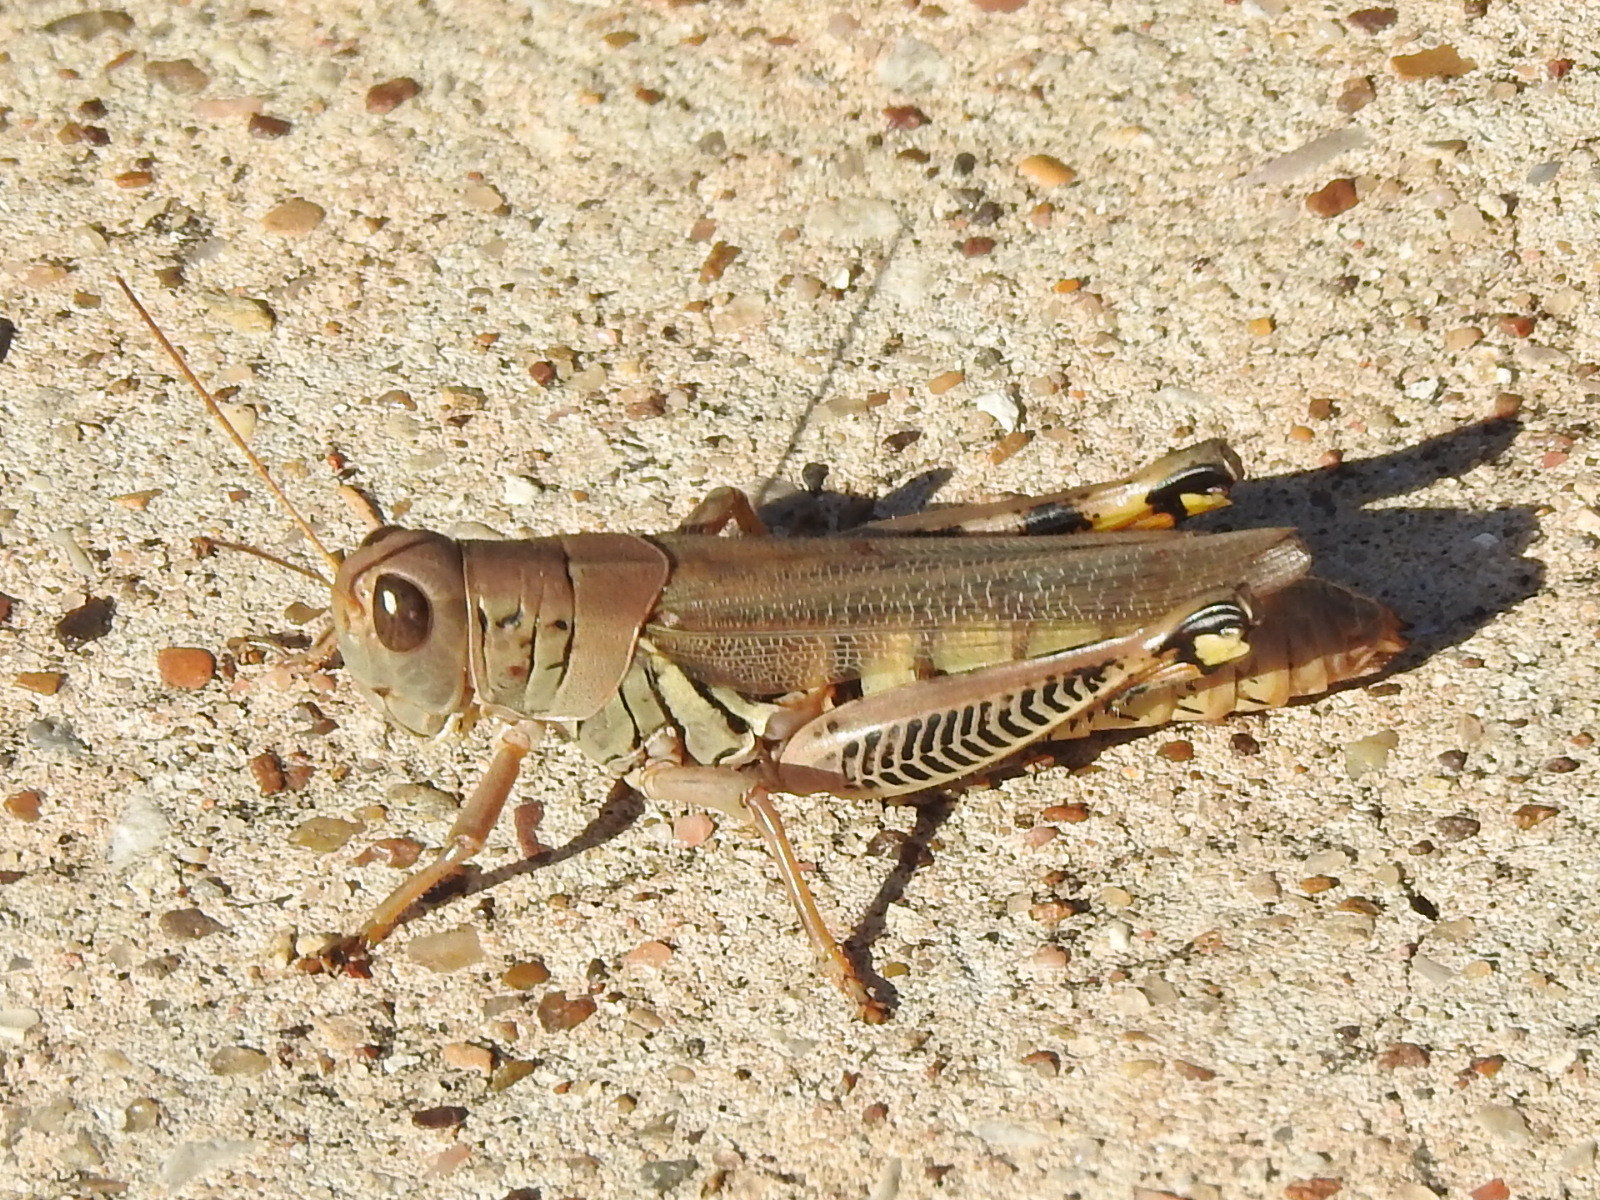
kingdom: Animalia
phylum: Arthropoda
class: Insecta
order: Orthoptera
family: Acrididae
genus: Melanoplus
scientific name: Melanoplus differentialis
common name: Differential grasshopper
